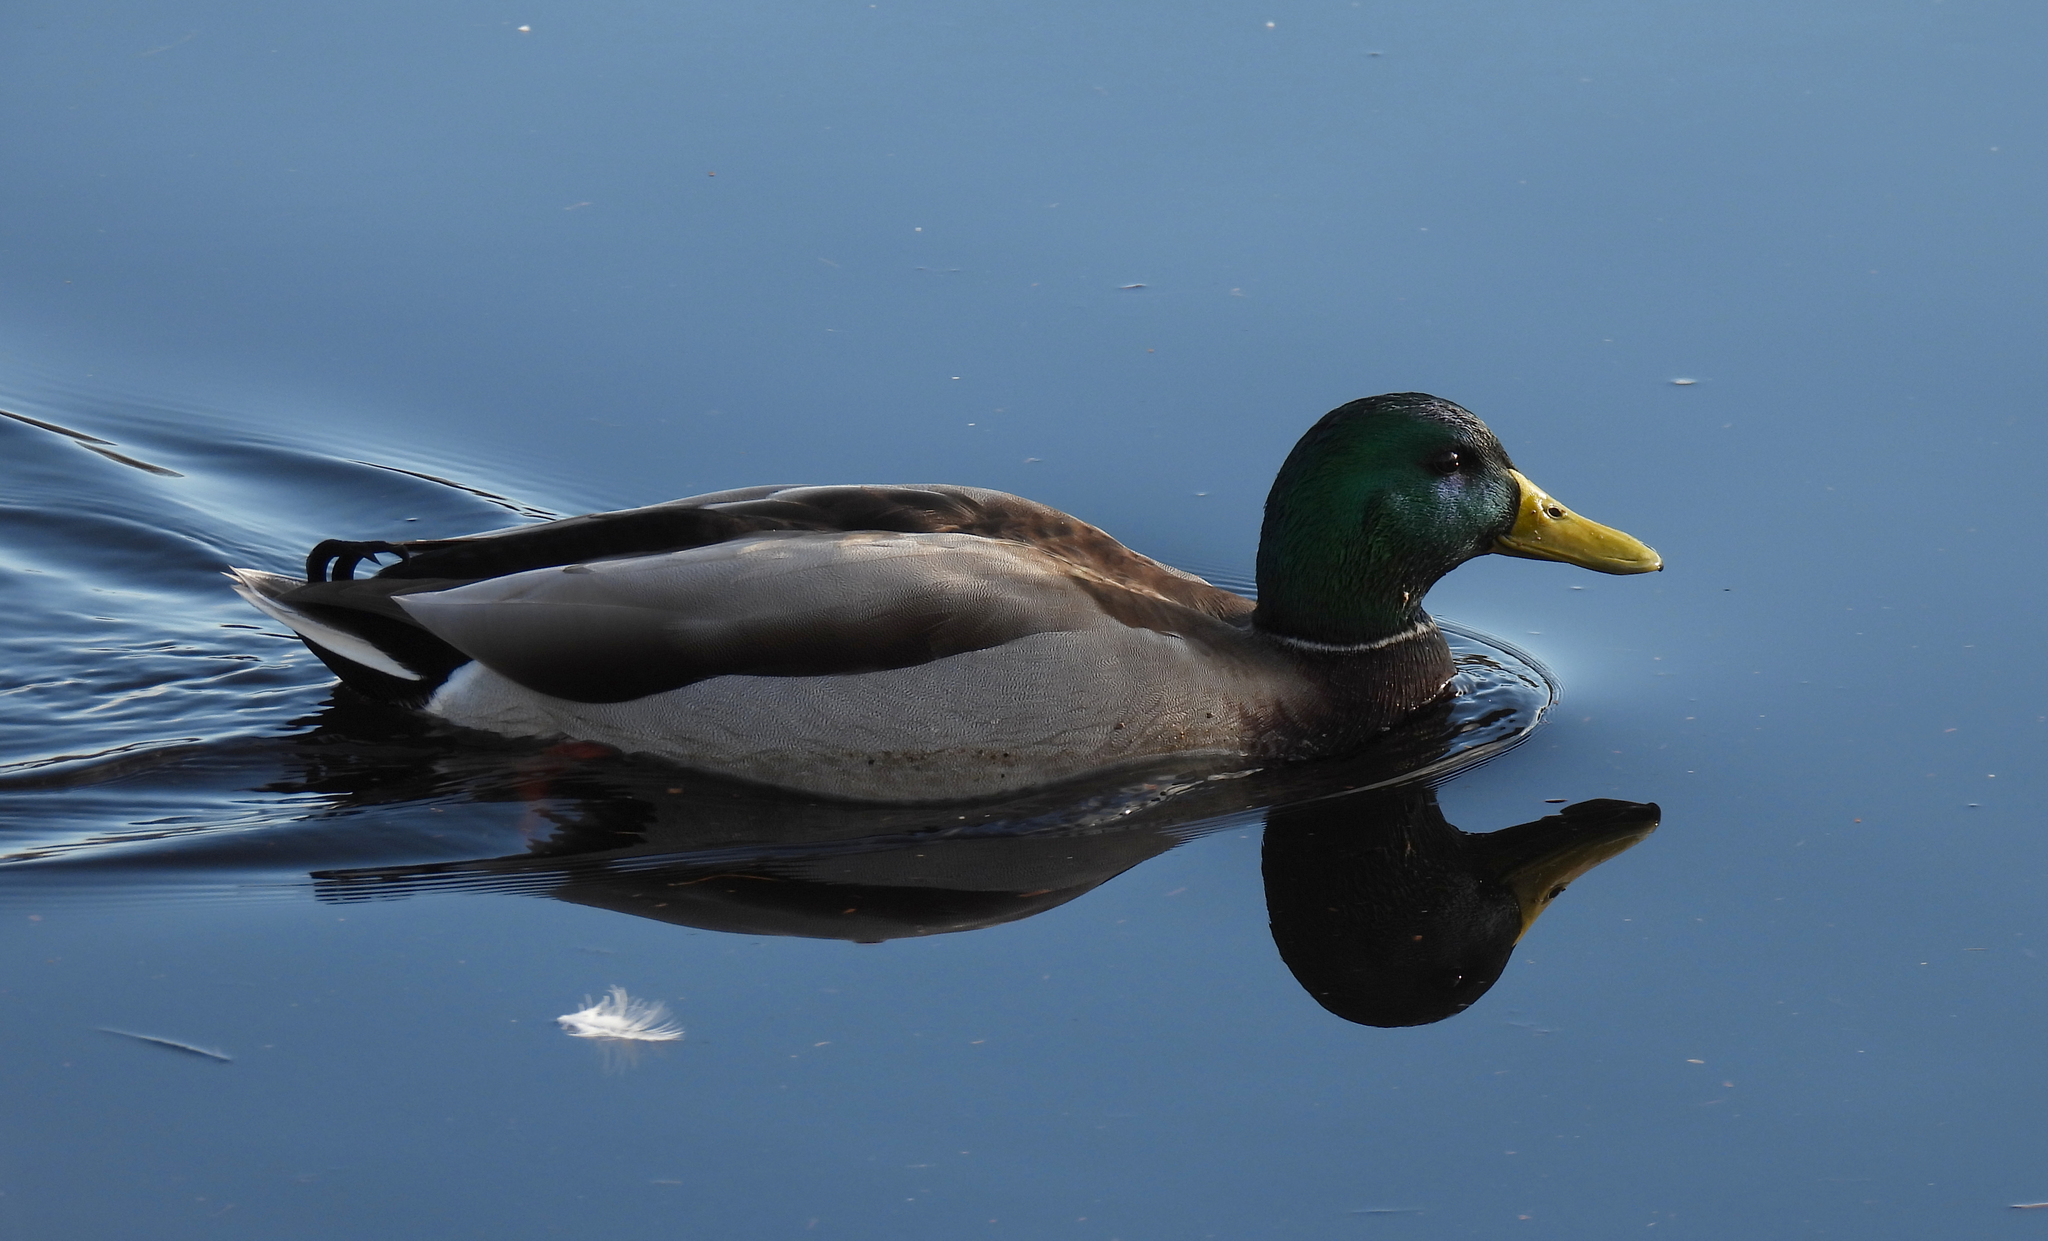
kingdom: Animalia
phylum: Chordata
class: Aves
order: Anseriformes
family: Anatidae
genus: Anas
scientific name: Anas platyrhynchos
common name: Mallard
